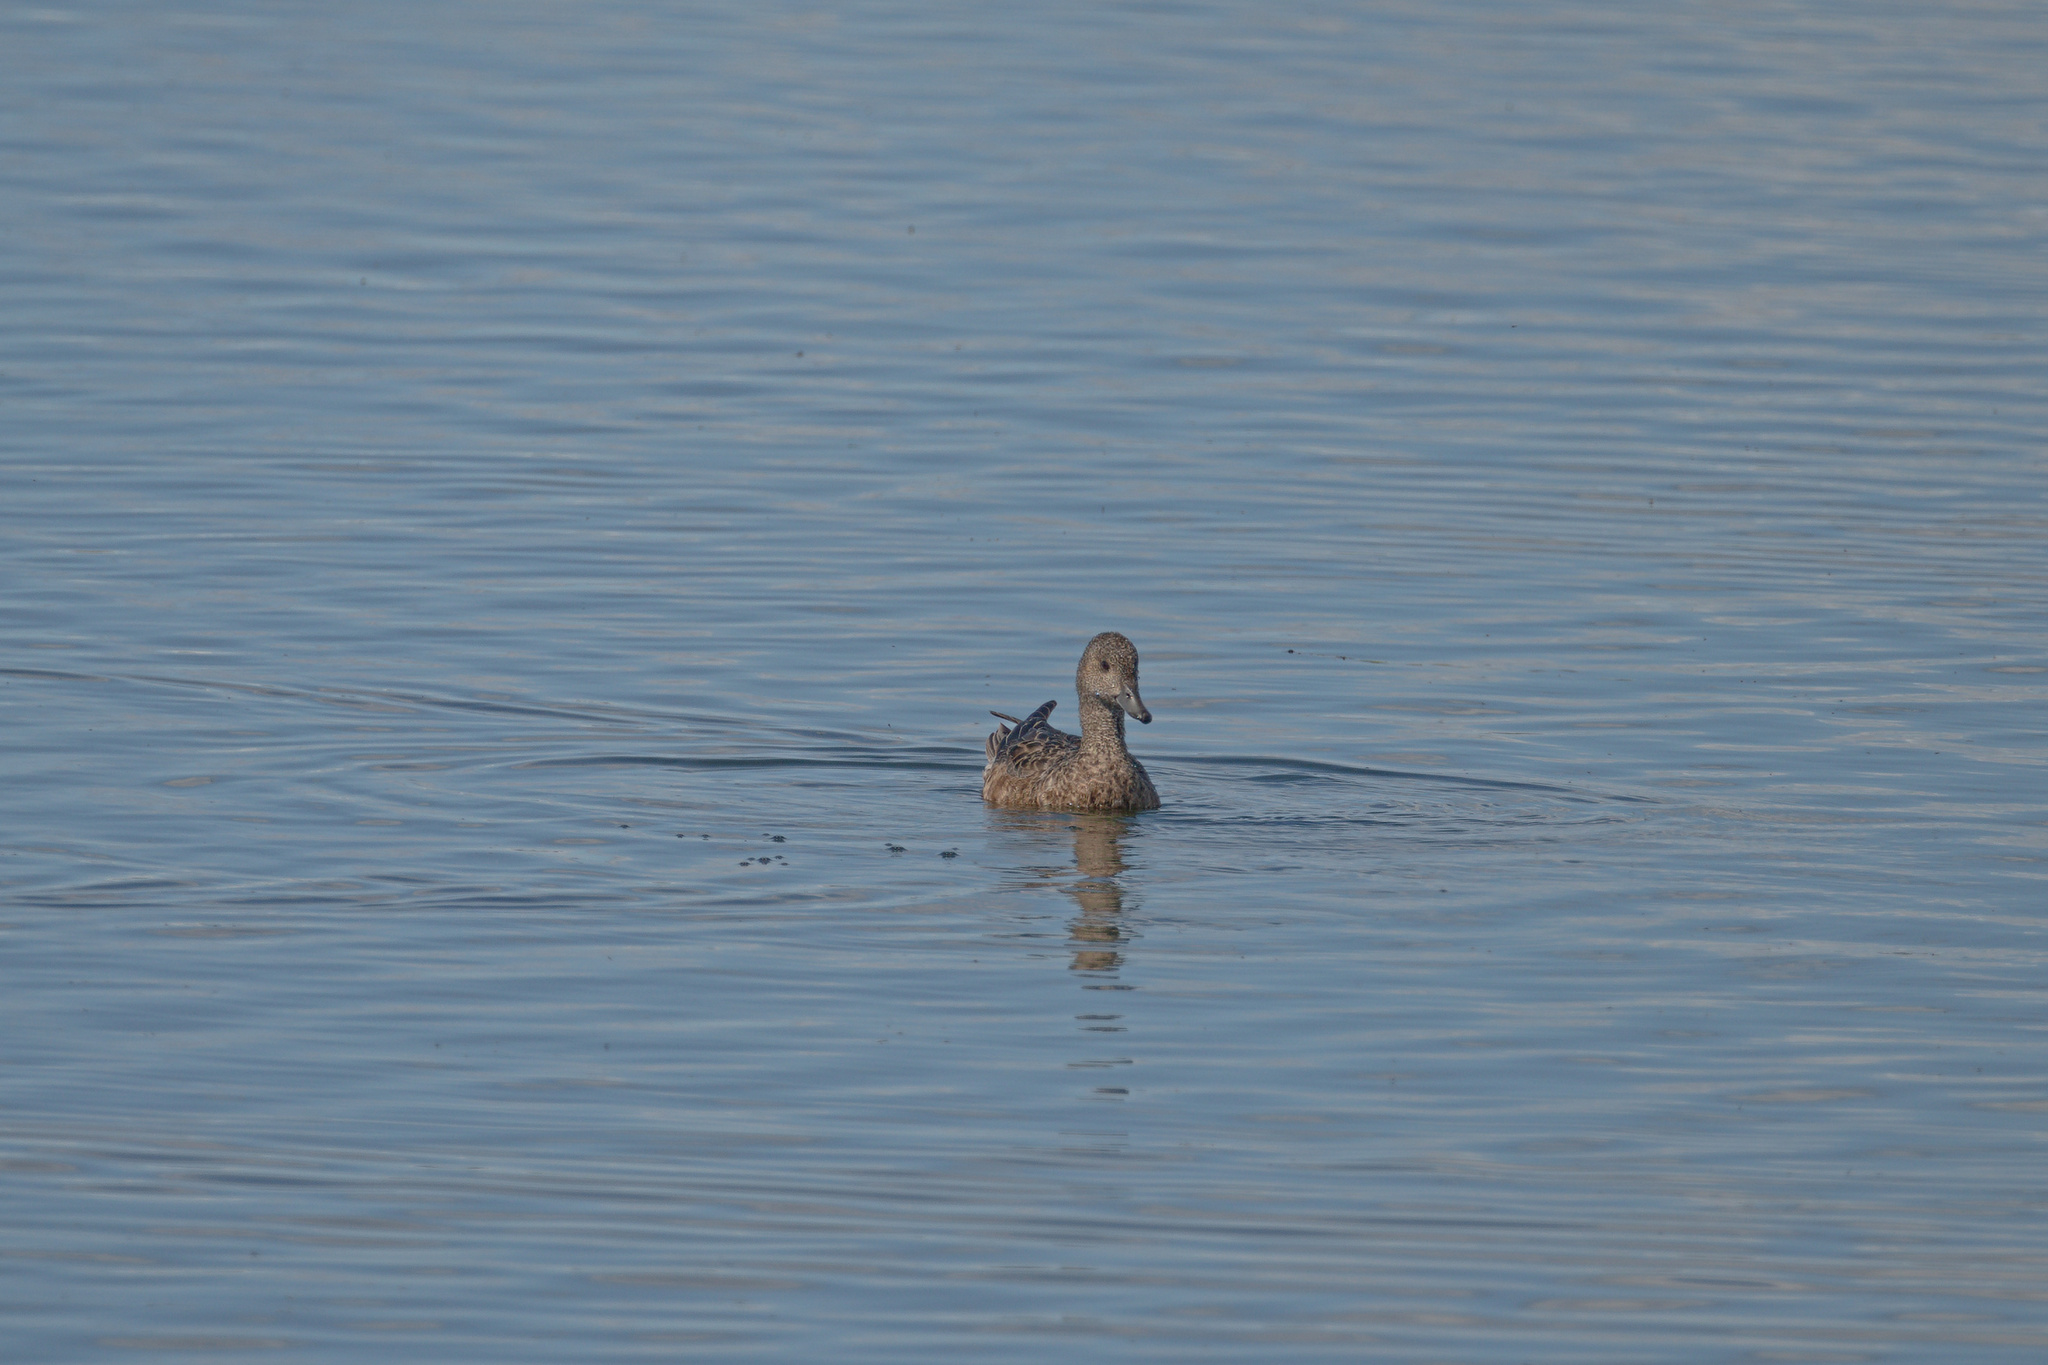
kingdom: Animalia
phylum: Chordata
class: Aves
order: Anseriformes
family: Anatidae
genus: Mareca
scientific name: Mareca penelope
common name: Eurasian wigeon
